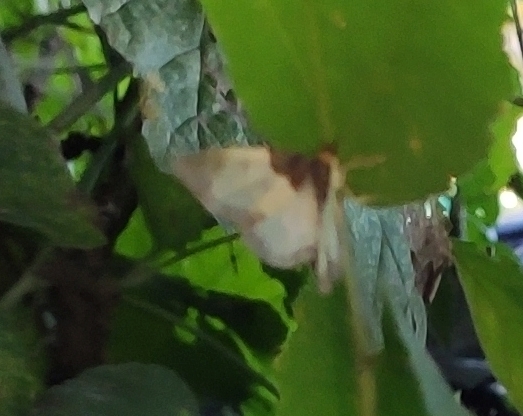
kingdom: Animalia
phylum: Arthropoda
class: Insecta
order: Lepidoptera
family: Geometridae
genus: Mesoleuca
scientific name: Mesoleuca albicillata
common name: Beautiful carpet
